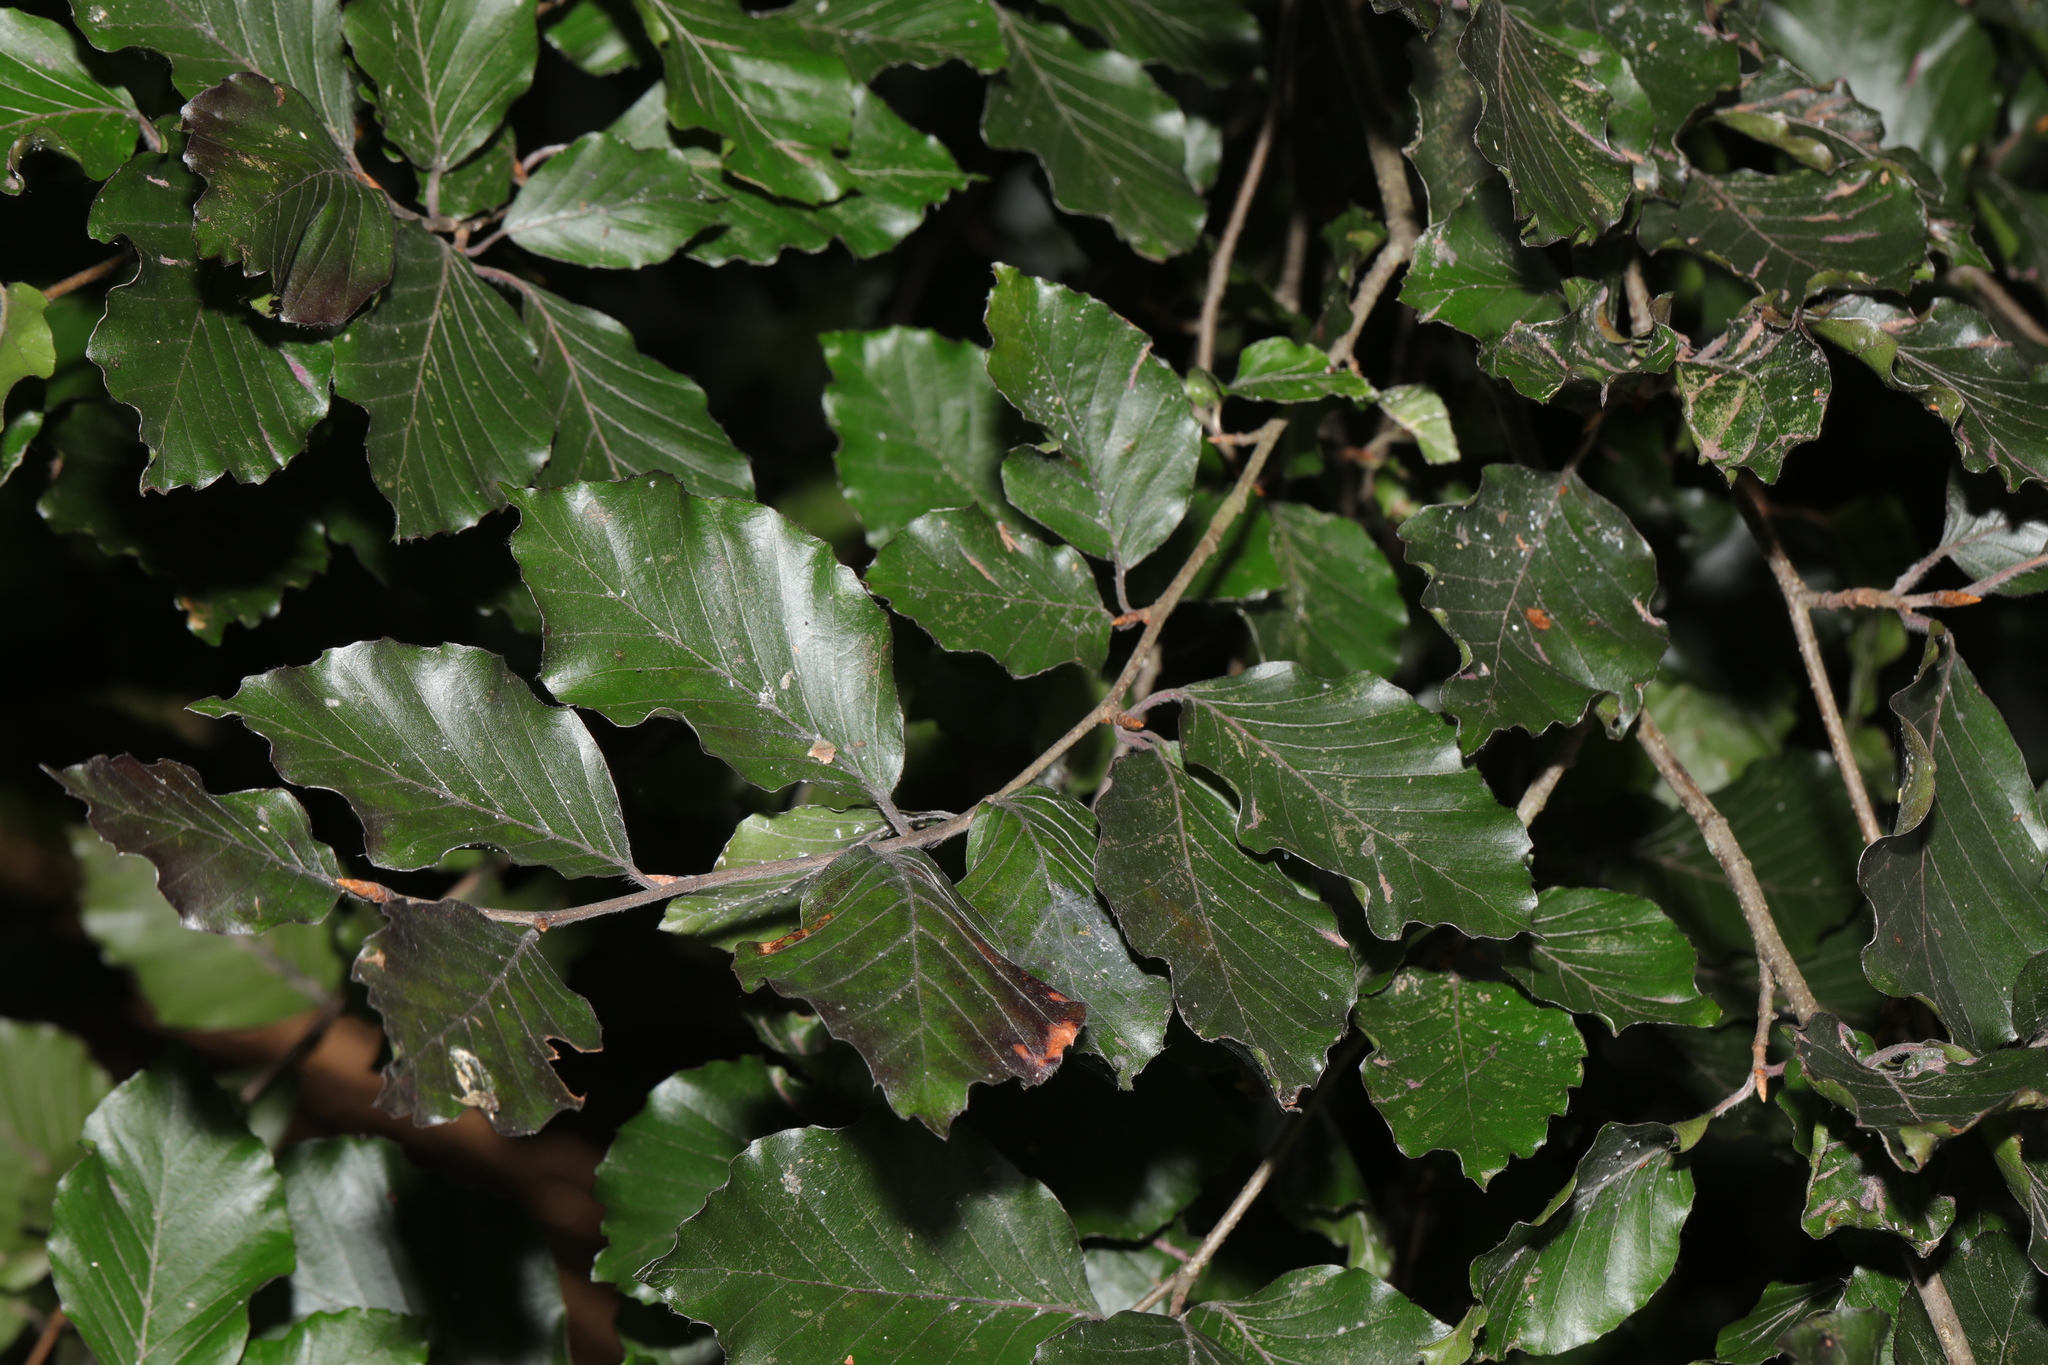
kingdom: Plantae
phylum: Tracheophyta
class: Magnoliopsida
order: Fagales
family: Fagaceae
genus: Fagus
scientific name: Fagus sylvatica
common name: Beech
